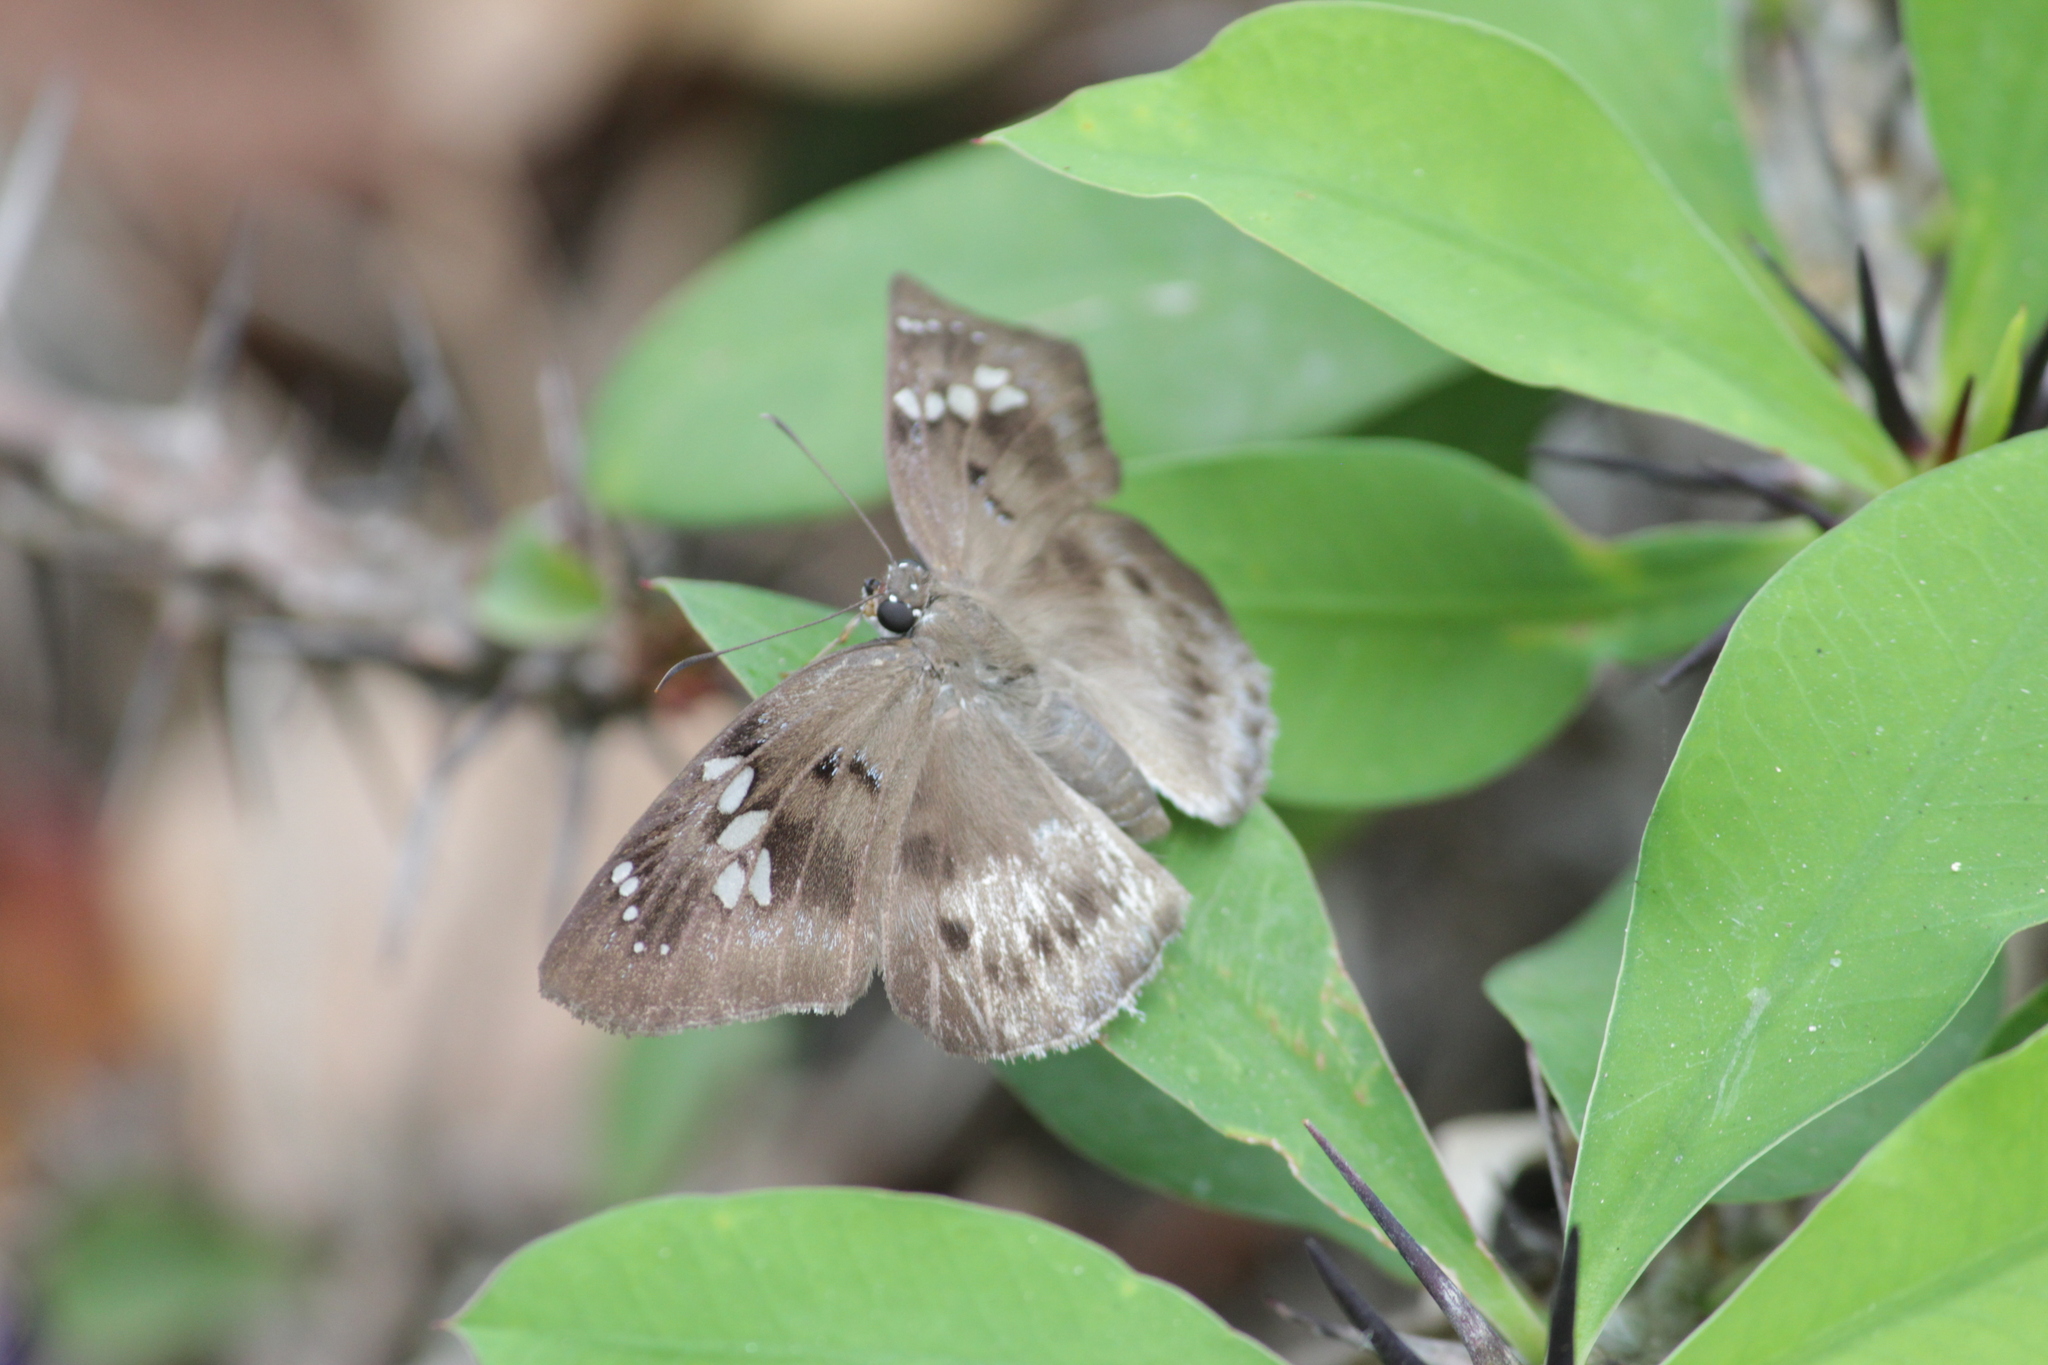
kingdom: Animalia
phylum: Arthropoda
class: Insecta
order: Lepidoptera
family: Hesperiidae
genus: Tagiades
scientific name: Tagiades flesus
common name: Clouded flat
